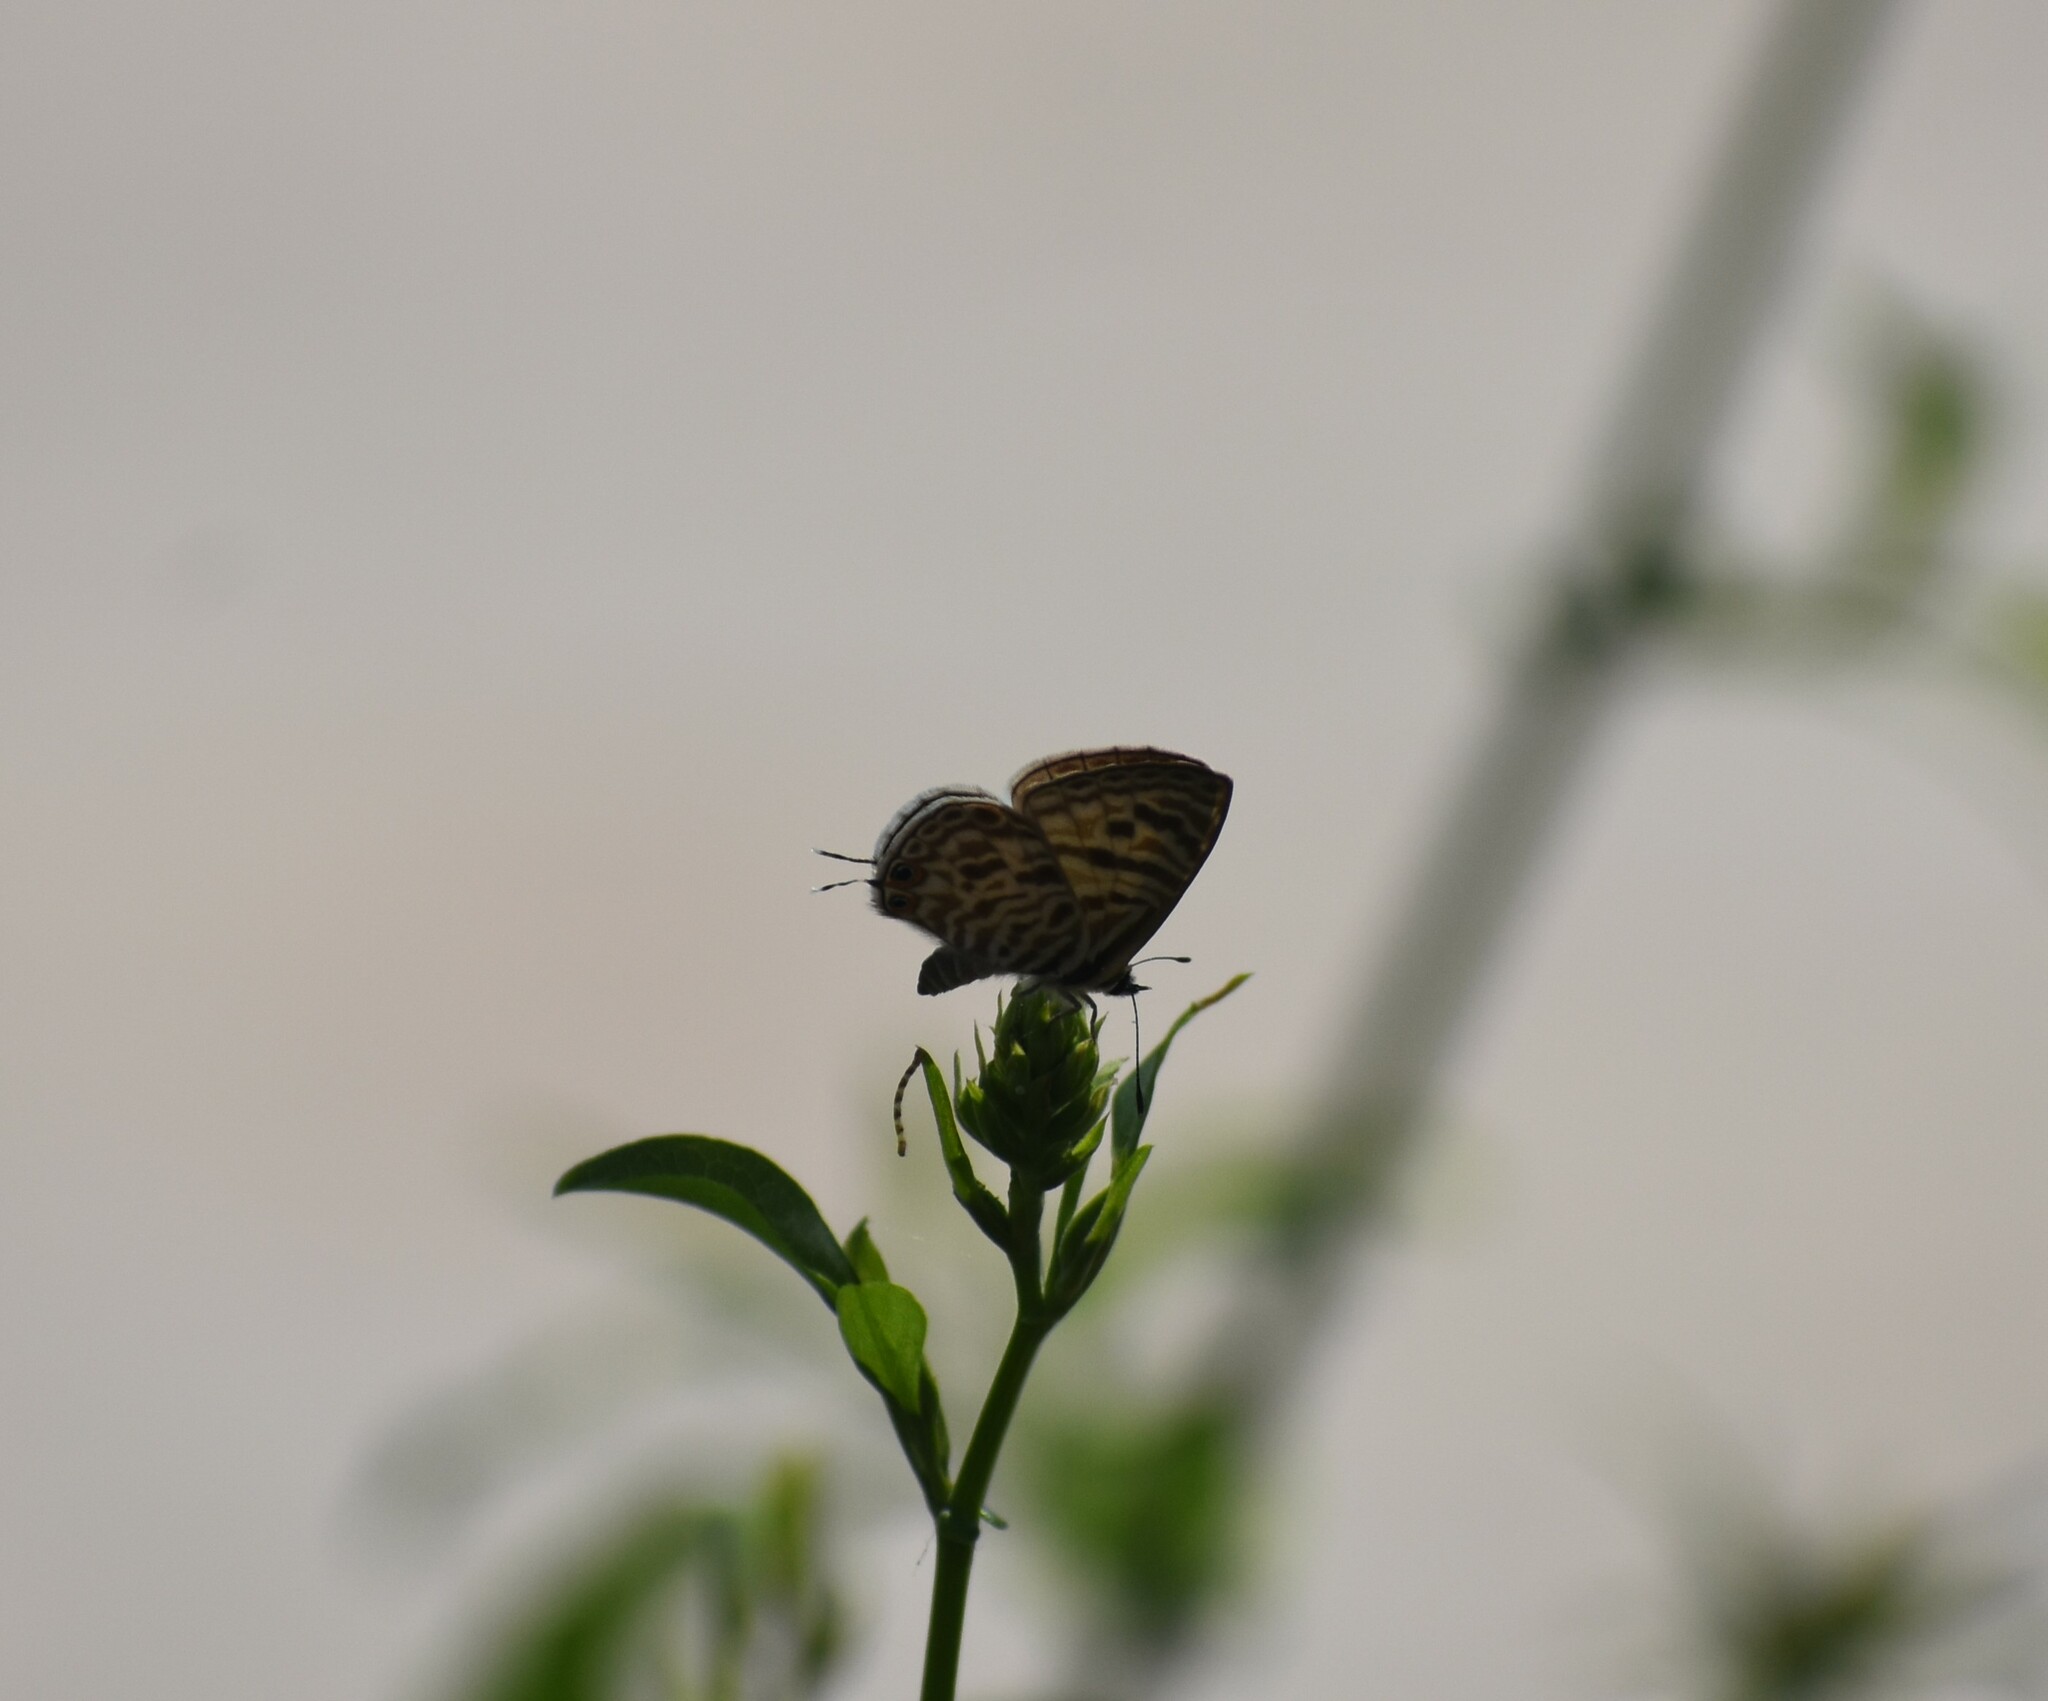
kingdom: Animalia
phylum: Arthropoda
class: Insecta
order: Lepidoptera
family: Lycaenidae
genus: Leptotes
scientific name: Leptotes
